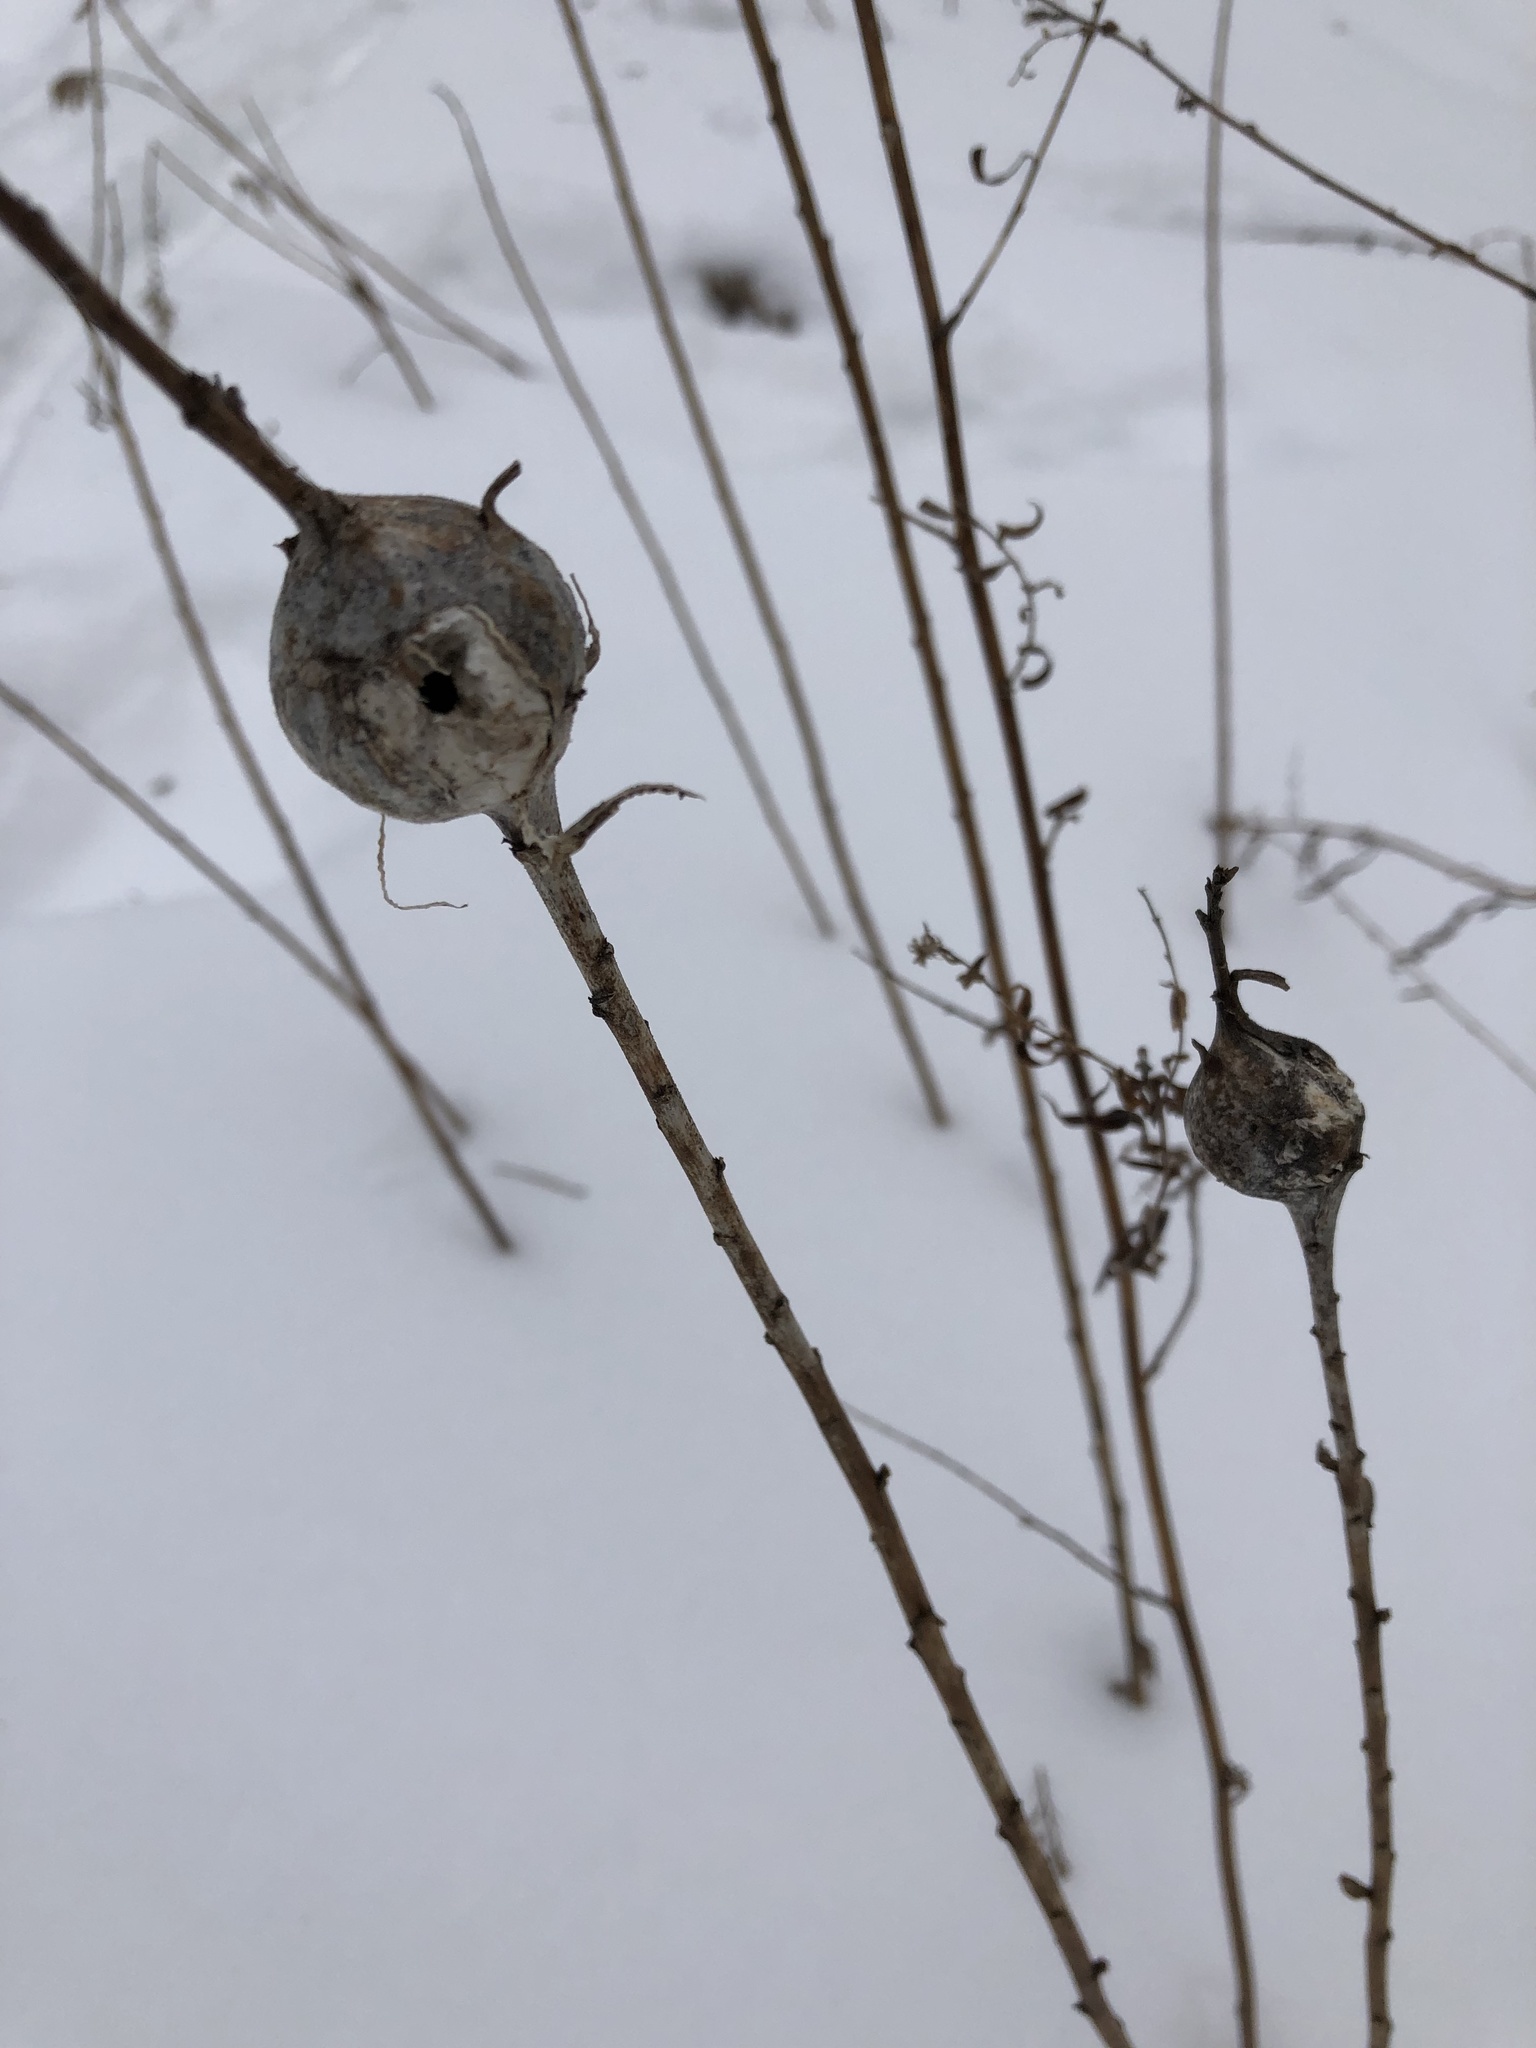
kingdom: Animalia
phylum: Arthropoda
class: Insecta
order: Diptera
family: Tephritidae
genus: Eurosta
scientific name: Eurosta solidaginis
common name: Goldenrod gall fly
